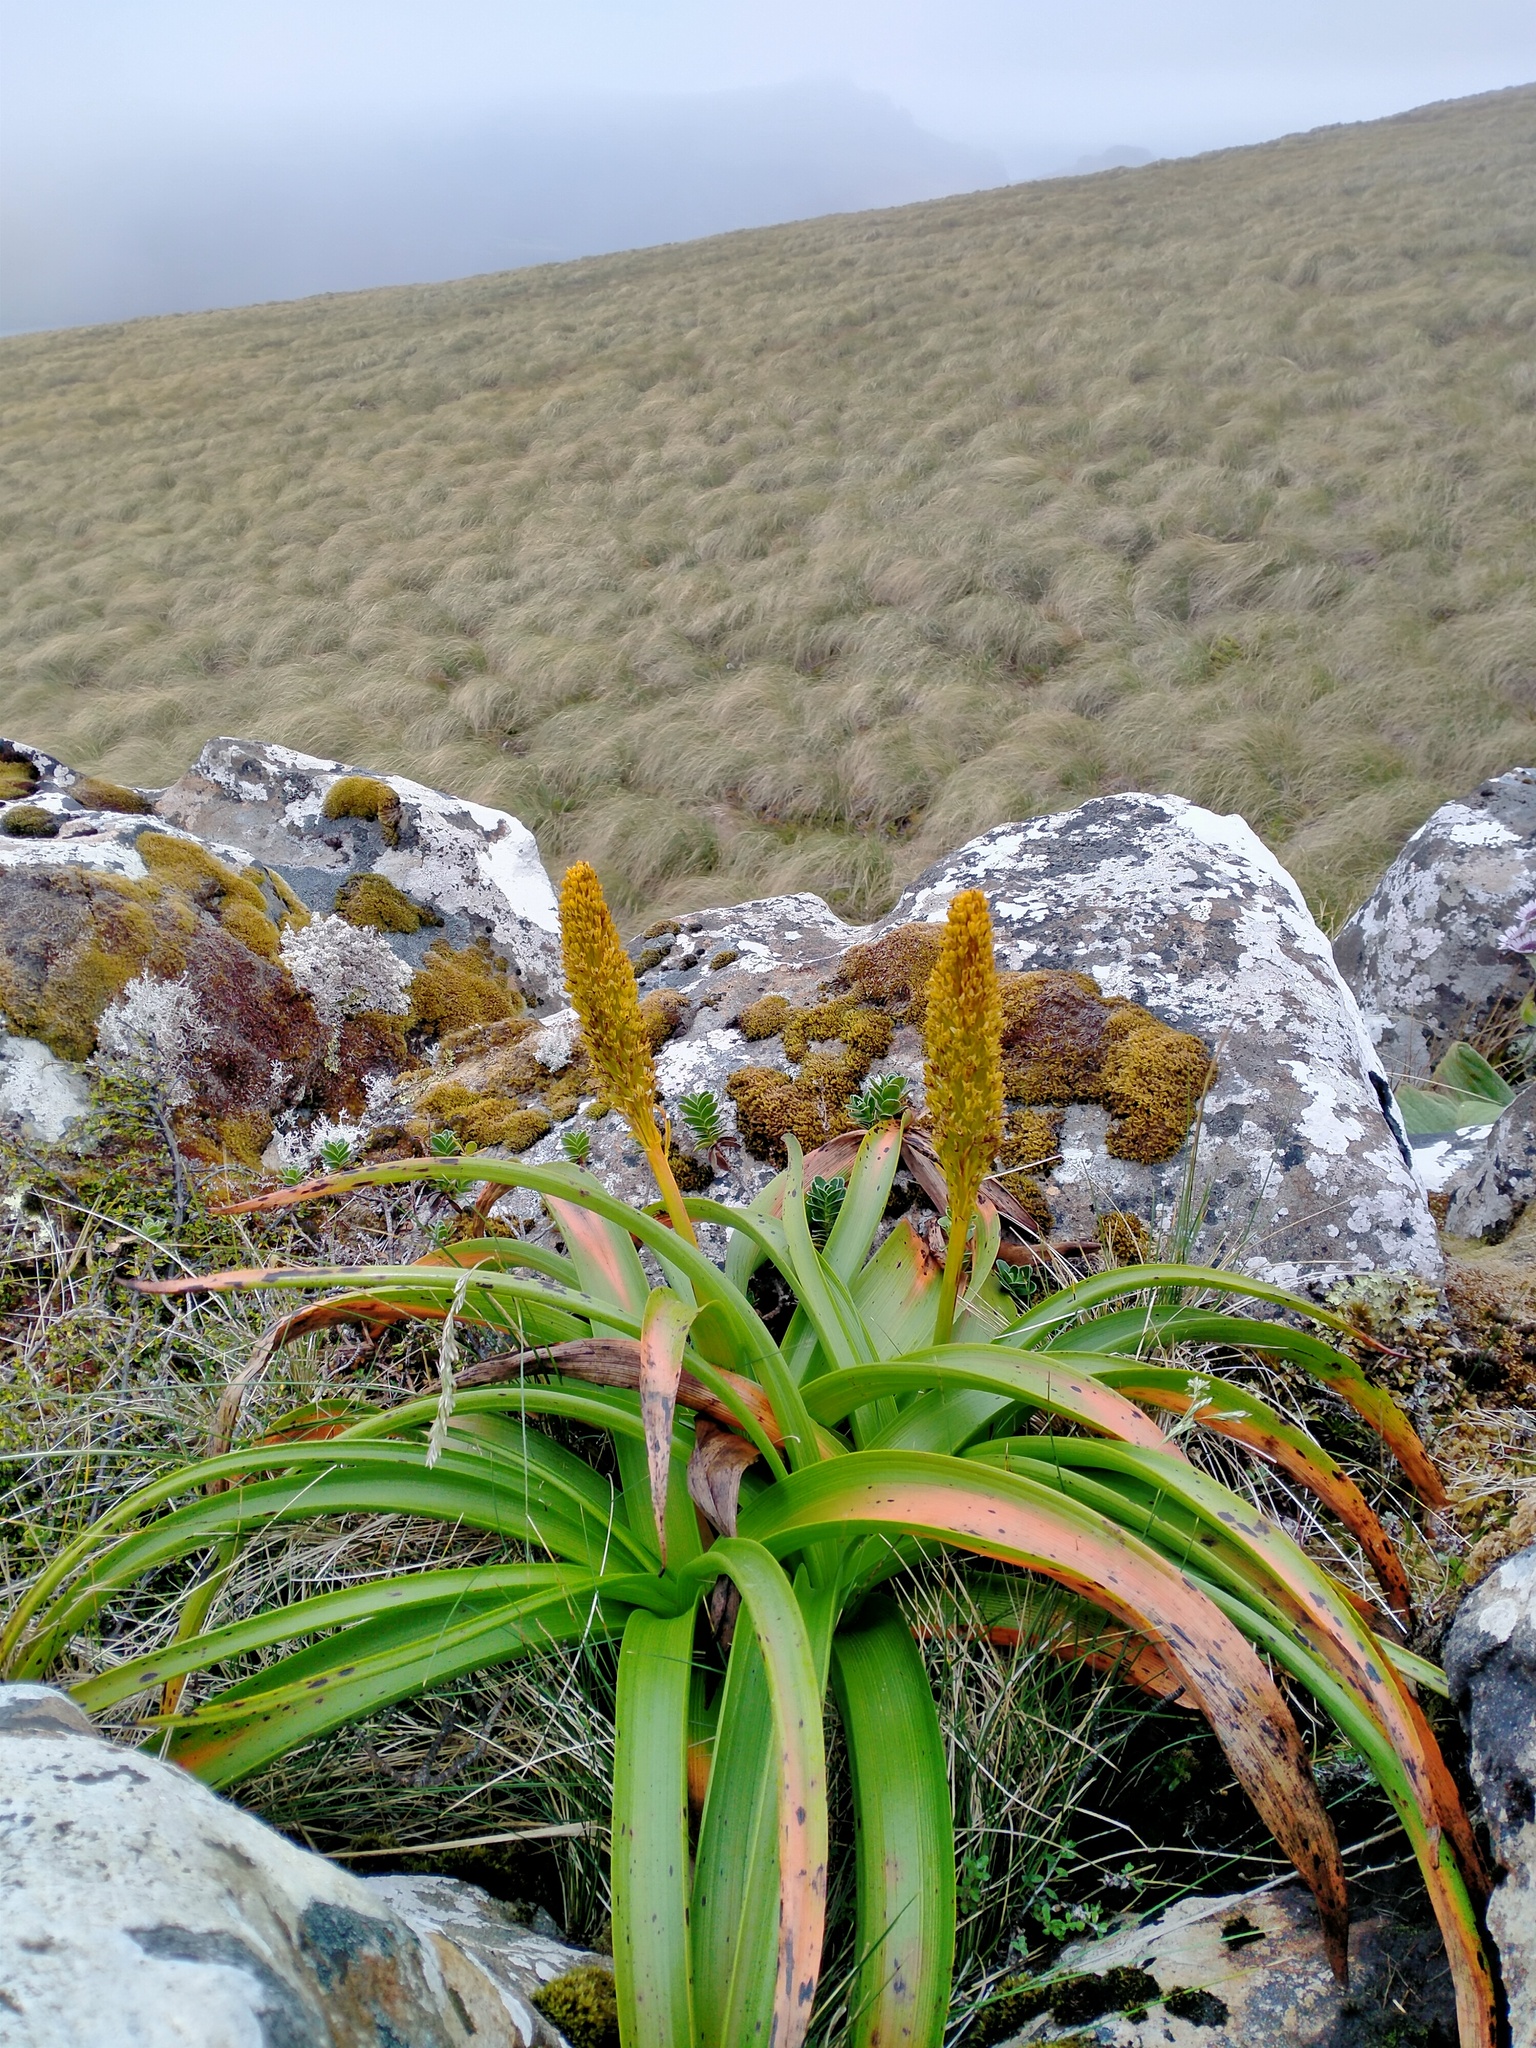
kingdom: Plantae
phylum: Tracheophyta
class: Liliopsida
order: Asparagales
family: Asphodelaceae
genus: Bulbinella
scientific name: Bulbinella rossii
